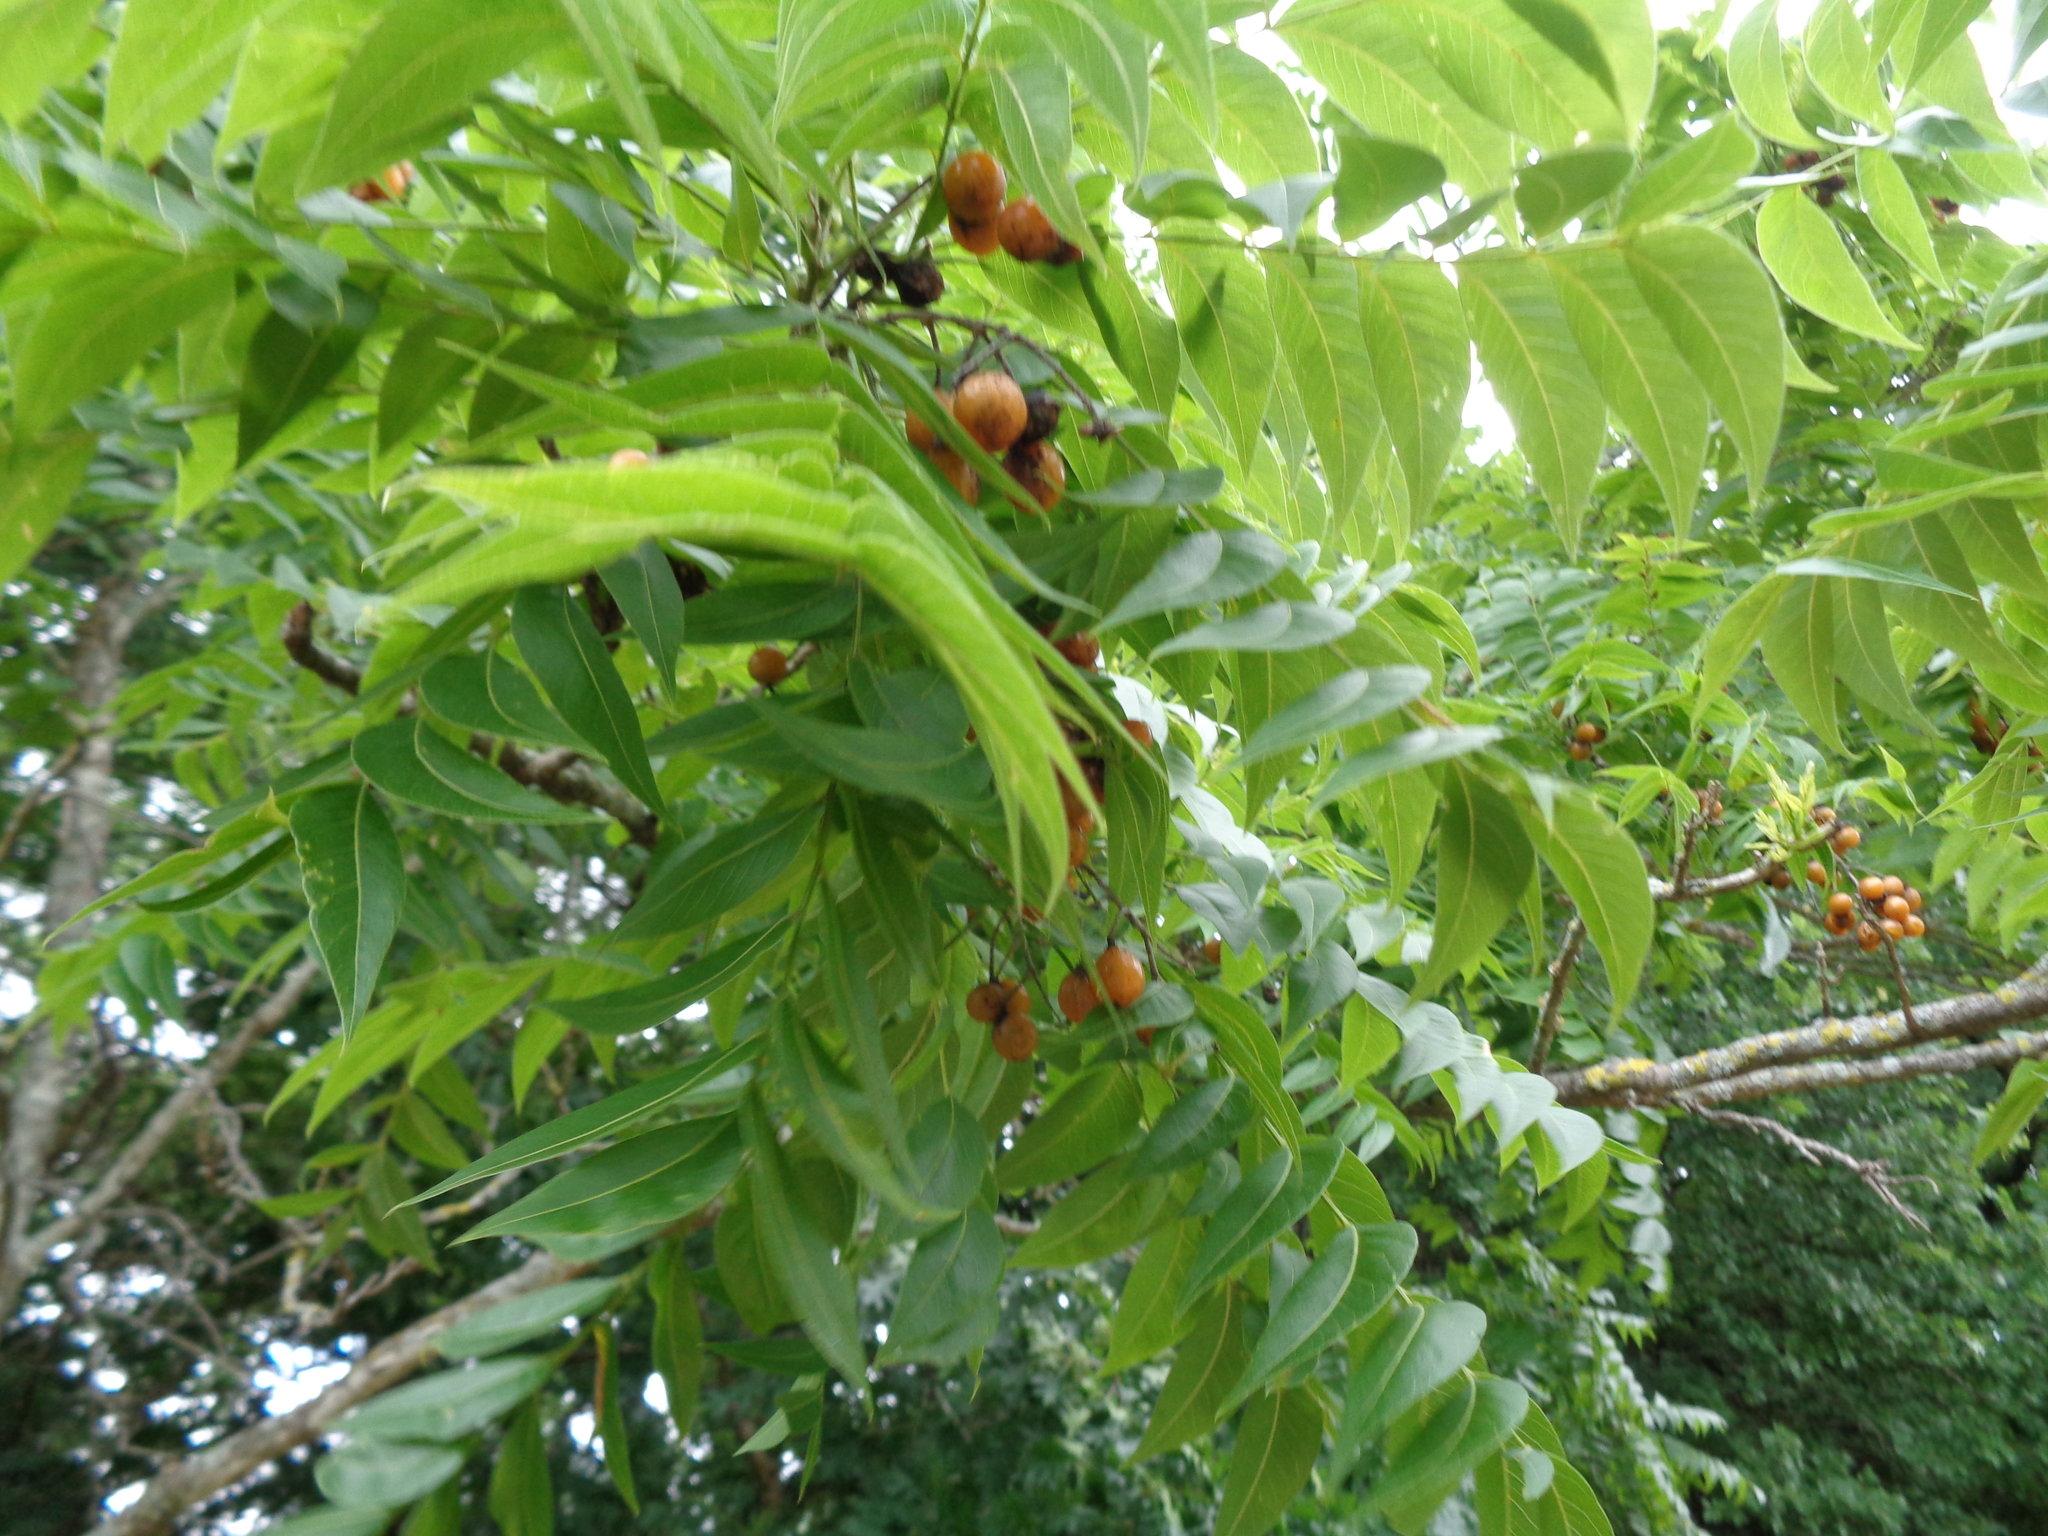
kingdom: Plantae
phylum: Tracheophyta
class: Magnoliopsida
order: Sapindales
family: Sapindaceae
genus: Sapindus
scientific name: Sapindus drummondii
